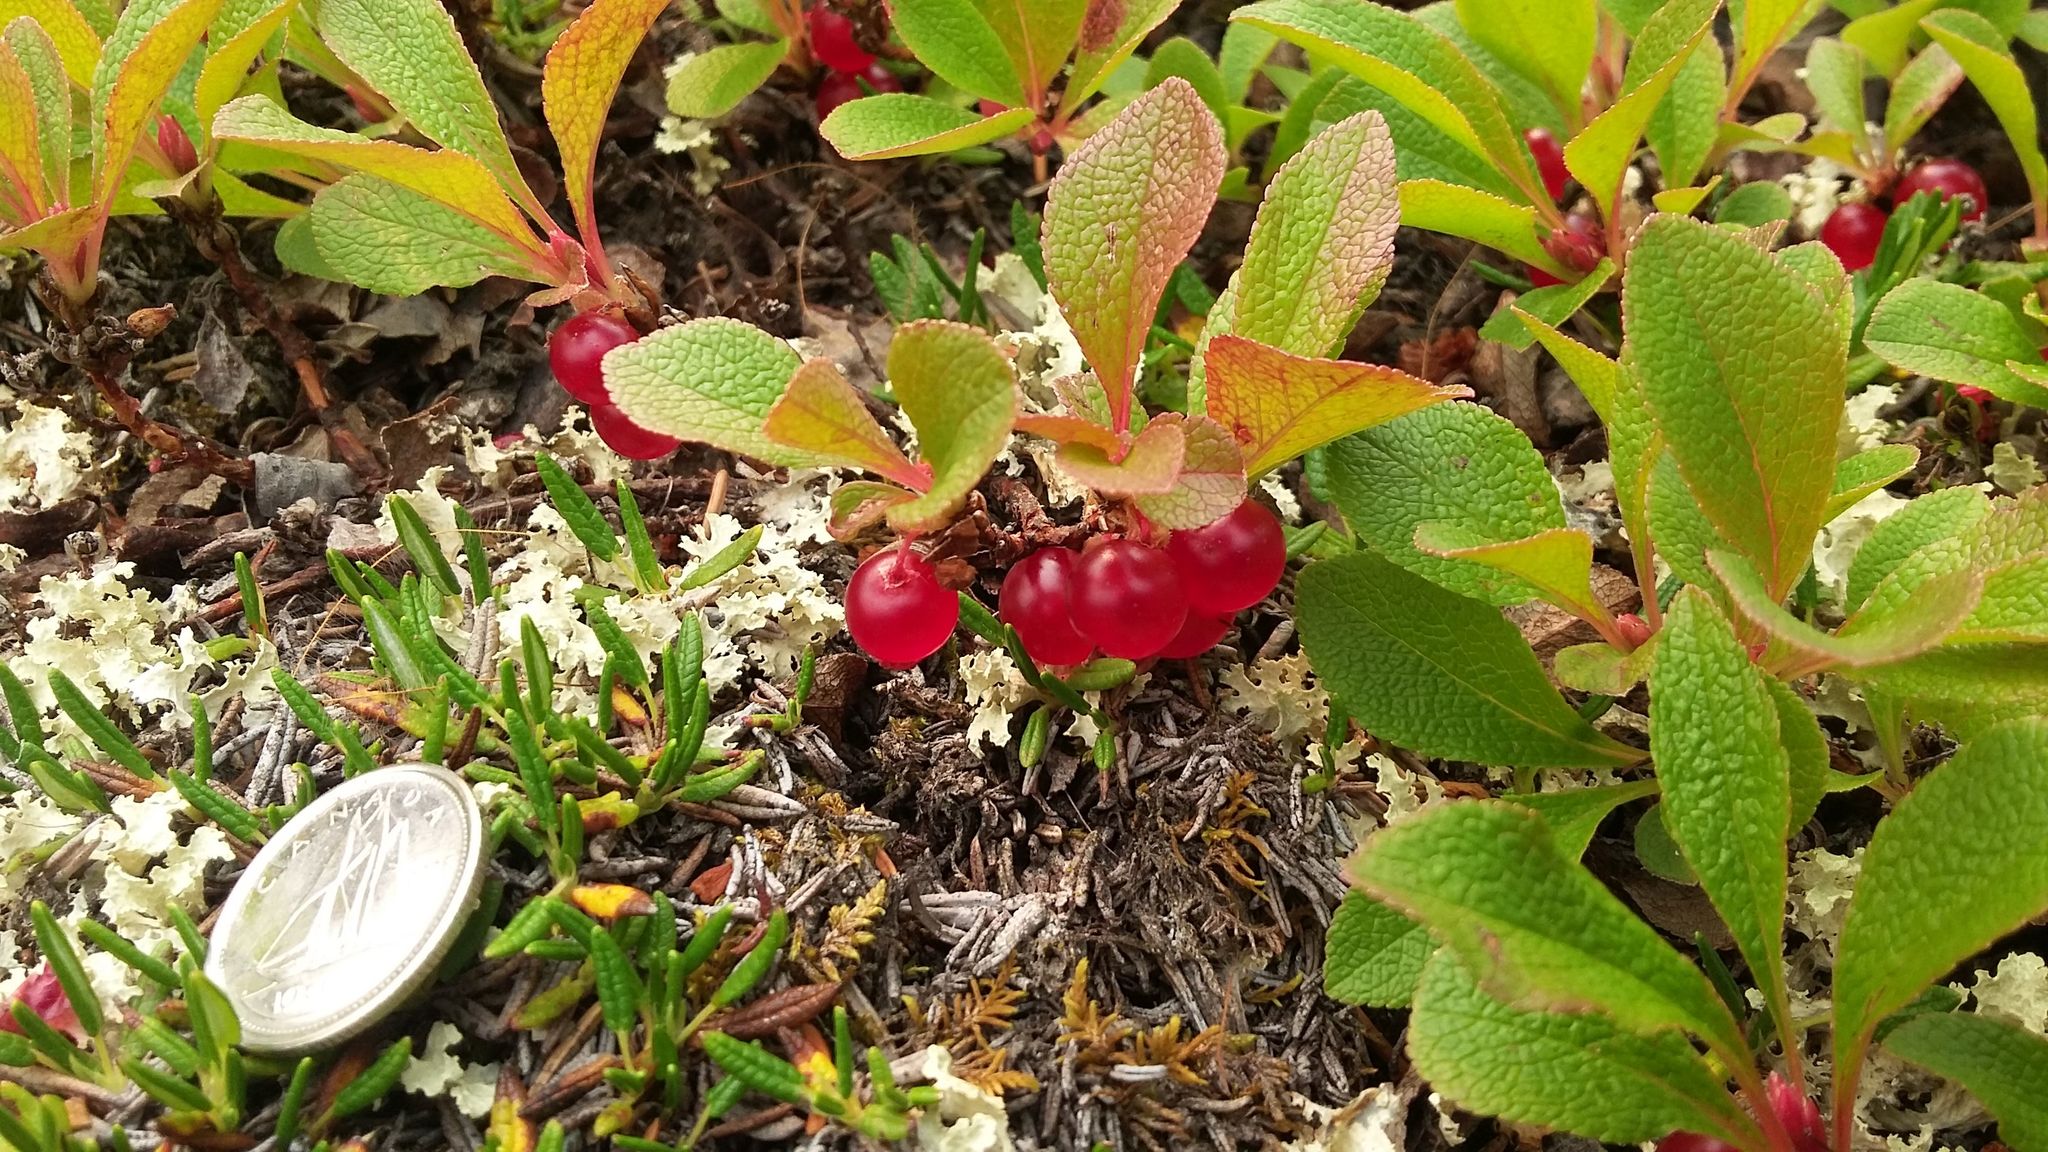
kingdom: Plantae
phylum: Tracheophyta
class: Magnoliopsida
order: Ericales
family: Ericaceae
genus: Arctostaphylos
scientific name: Arctostaphylos rubra
